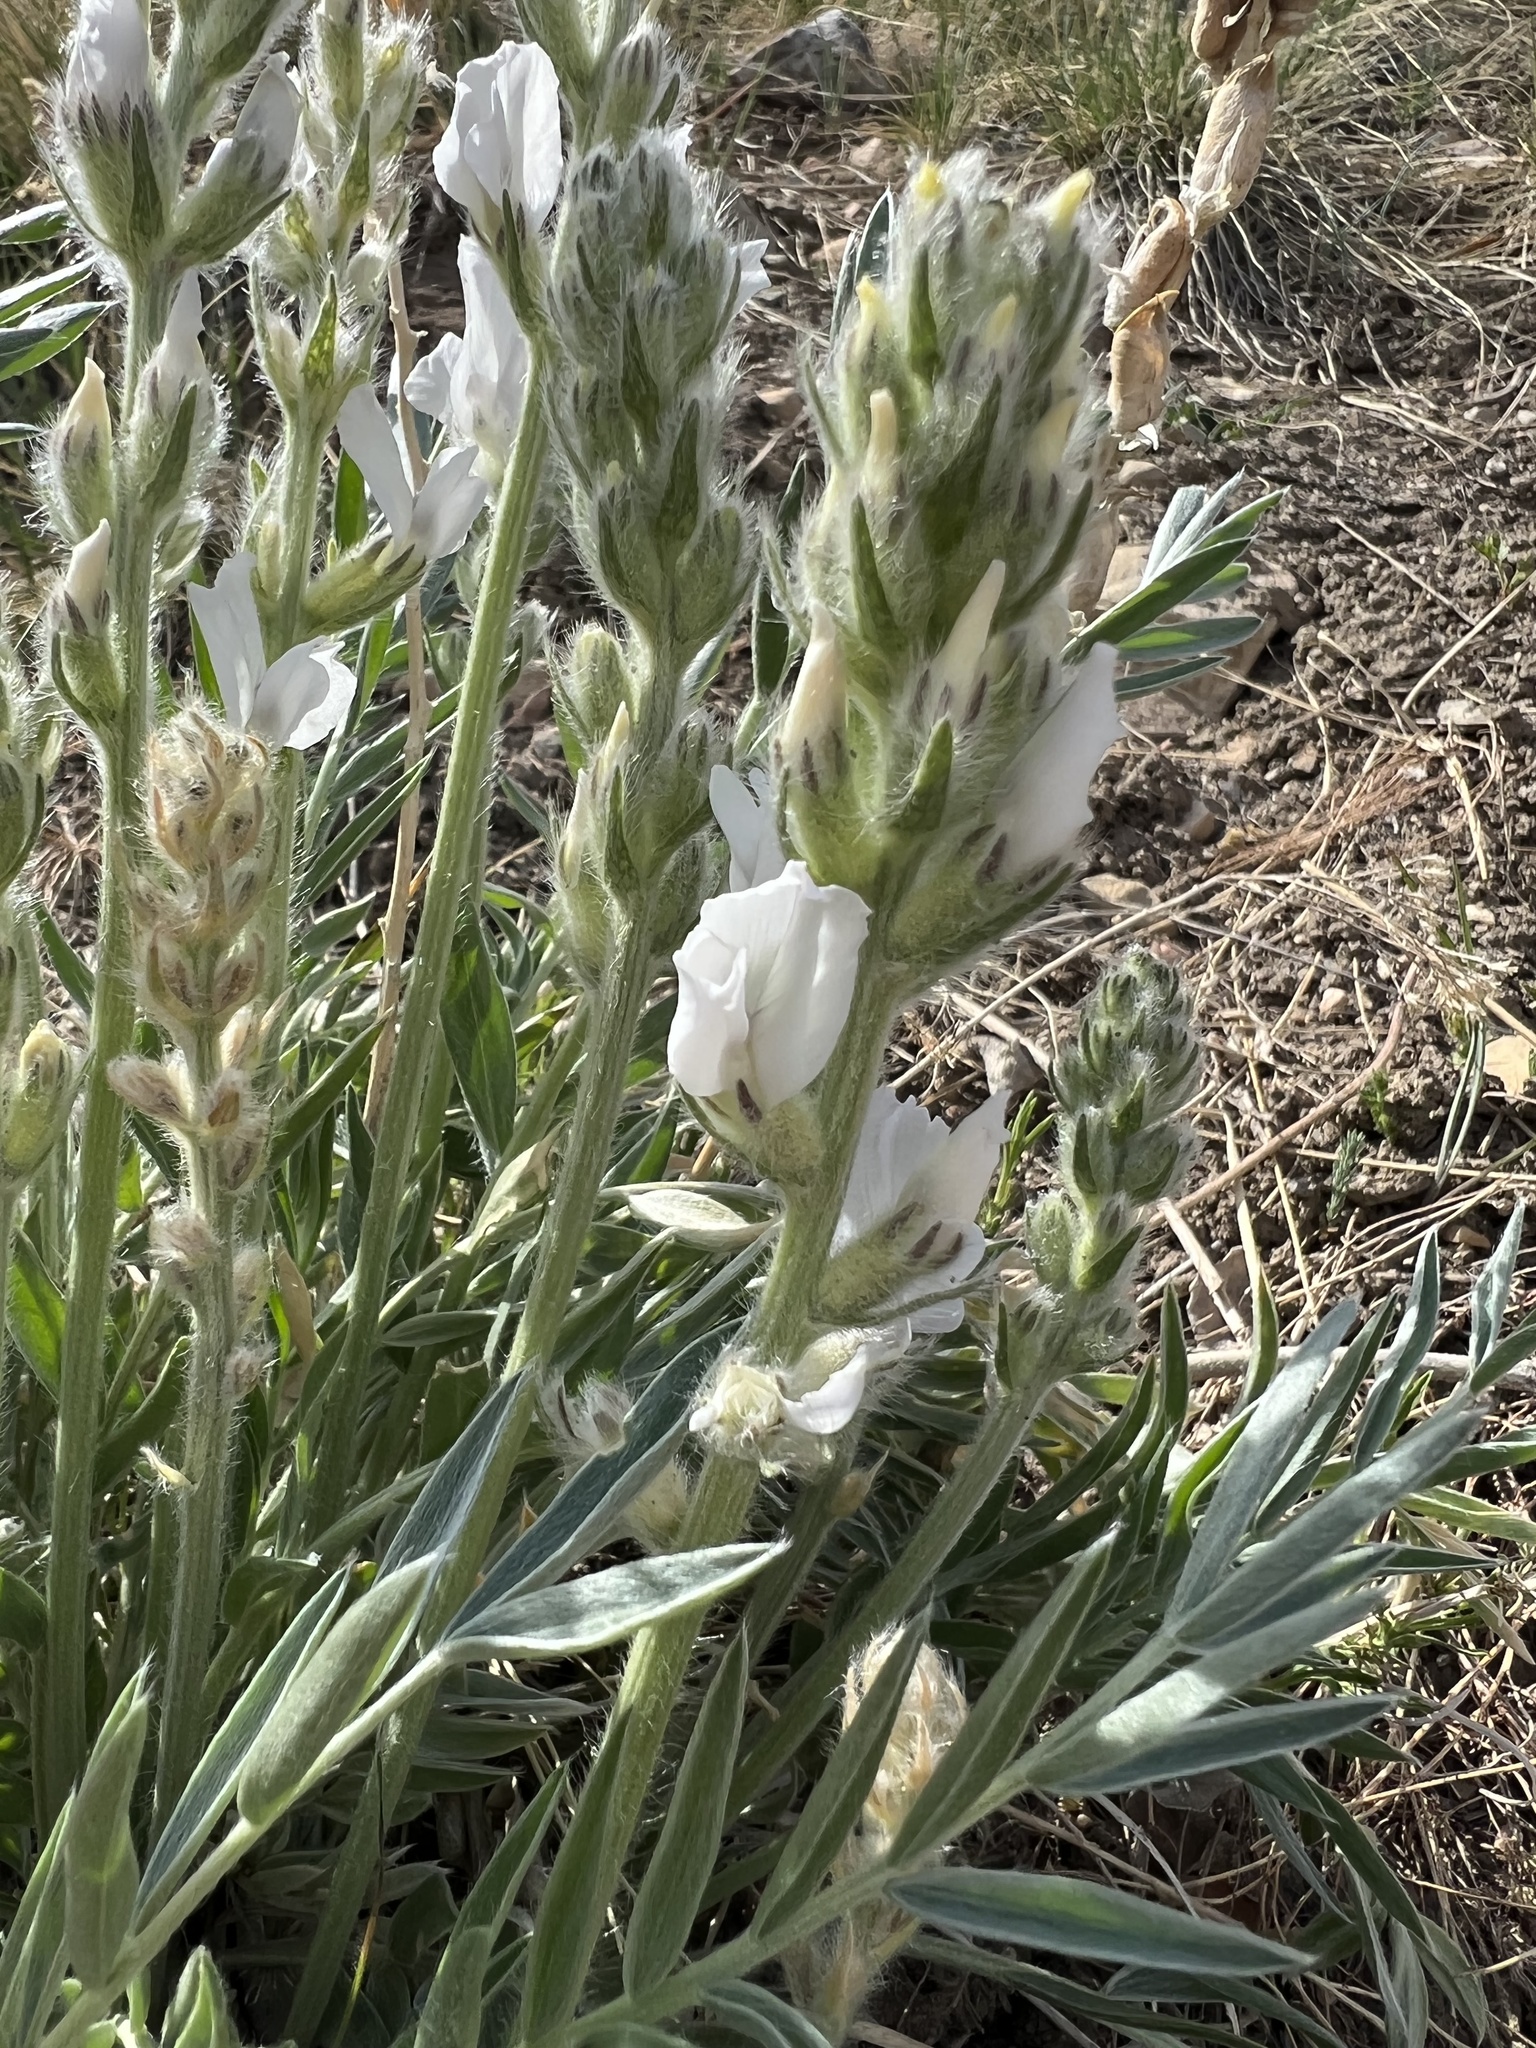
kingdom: Plantae
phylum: Tracheophyta
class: Magnoliopsida
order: Fabales
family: Fabaceae
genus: Oxytropis
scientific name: Oxytropis sericea
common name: Silky locoweed
